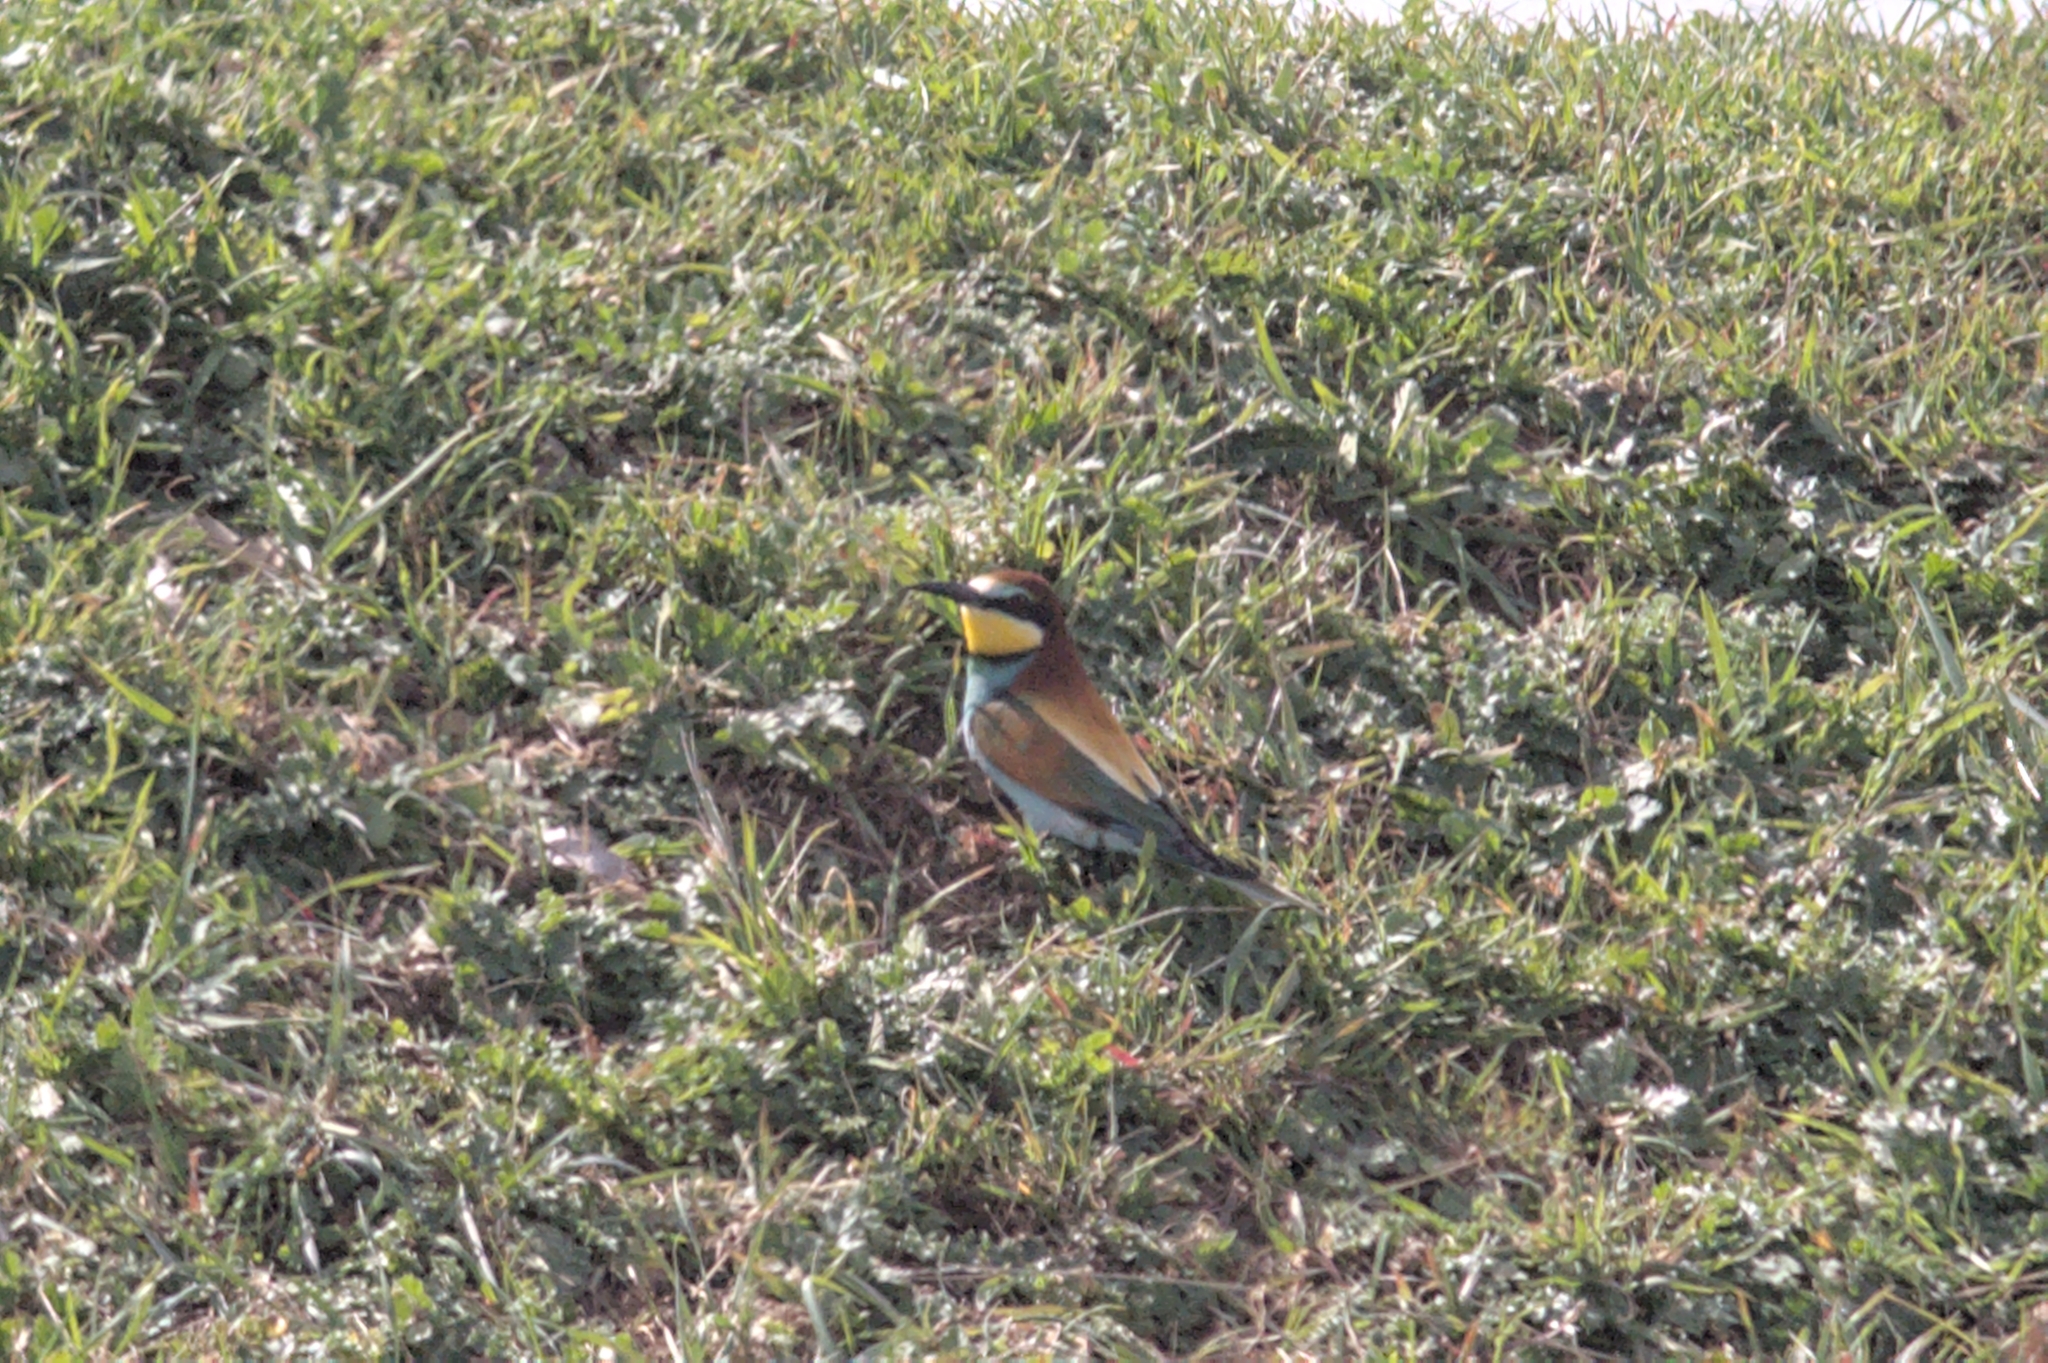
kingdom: Animalia
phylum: Chordata
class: Aves
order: Coraciiformes
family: Meropidae
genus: Merops
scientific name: Merops apiaster
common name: European bee-eater
